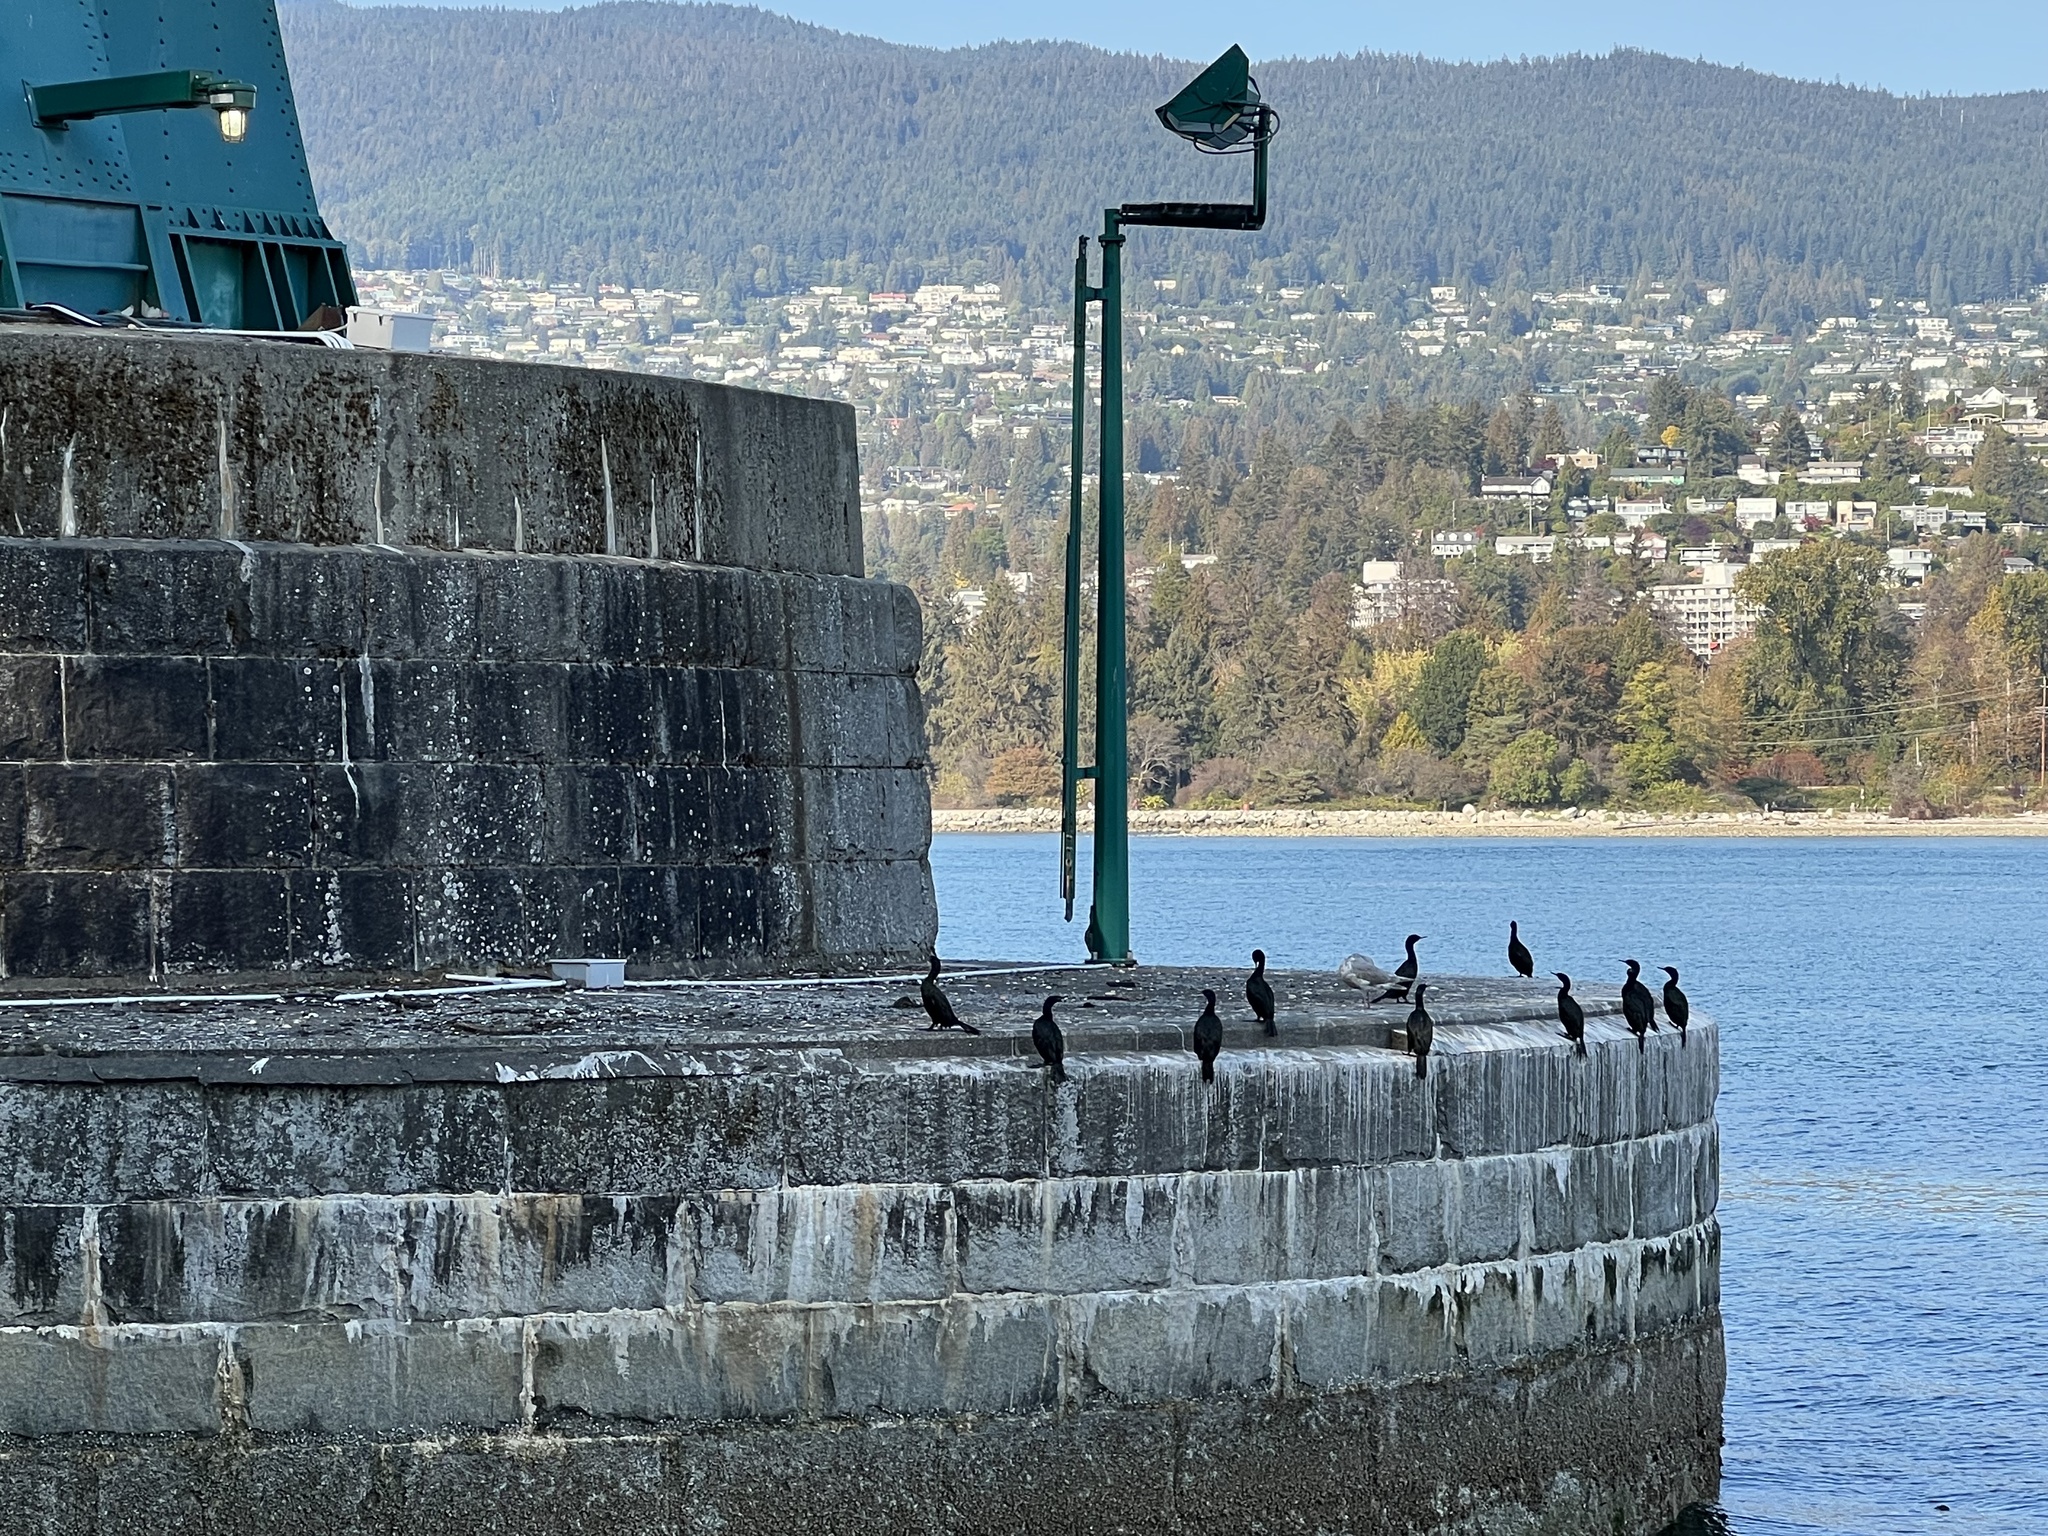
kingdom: Animalia
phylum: Chordata
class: Aves
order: Suliformes
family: Phalacrocoracidae
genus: Phalacrocorax
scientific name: Phalacrocorax pelagicus
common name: Pelagic cormorant
